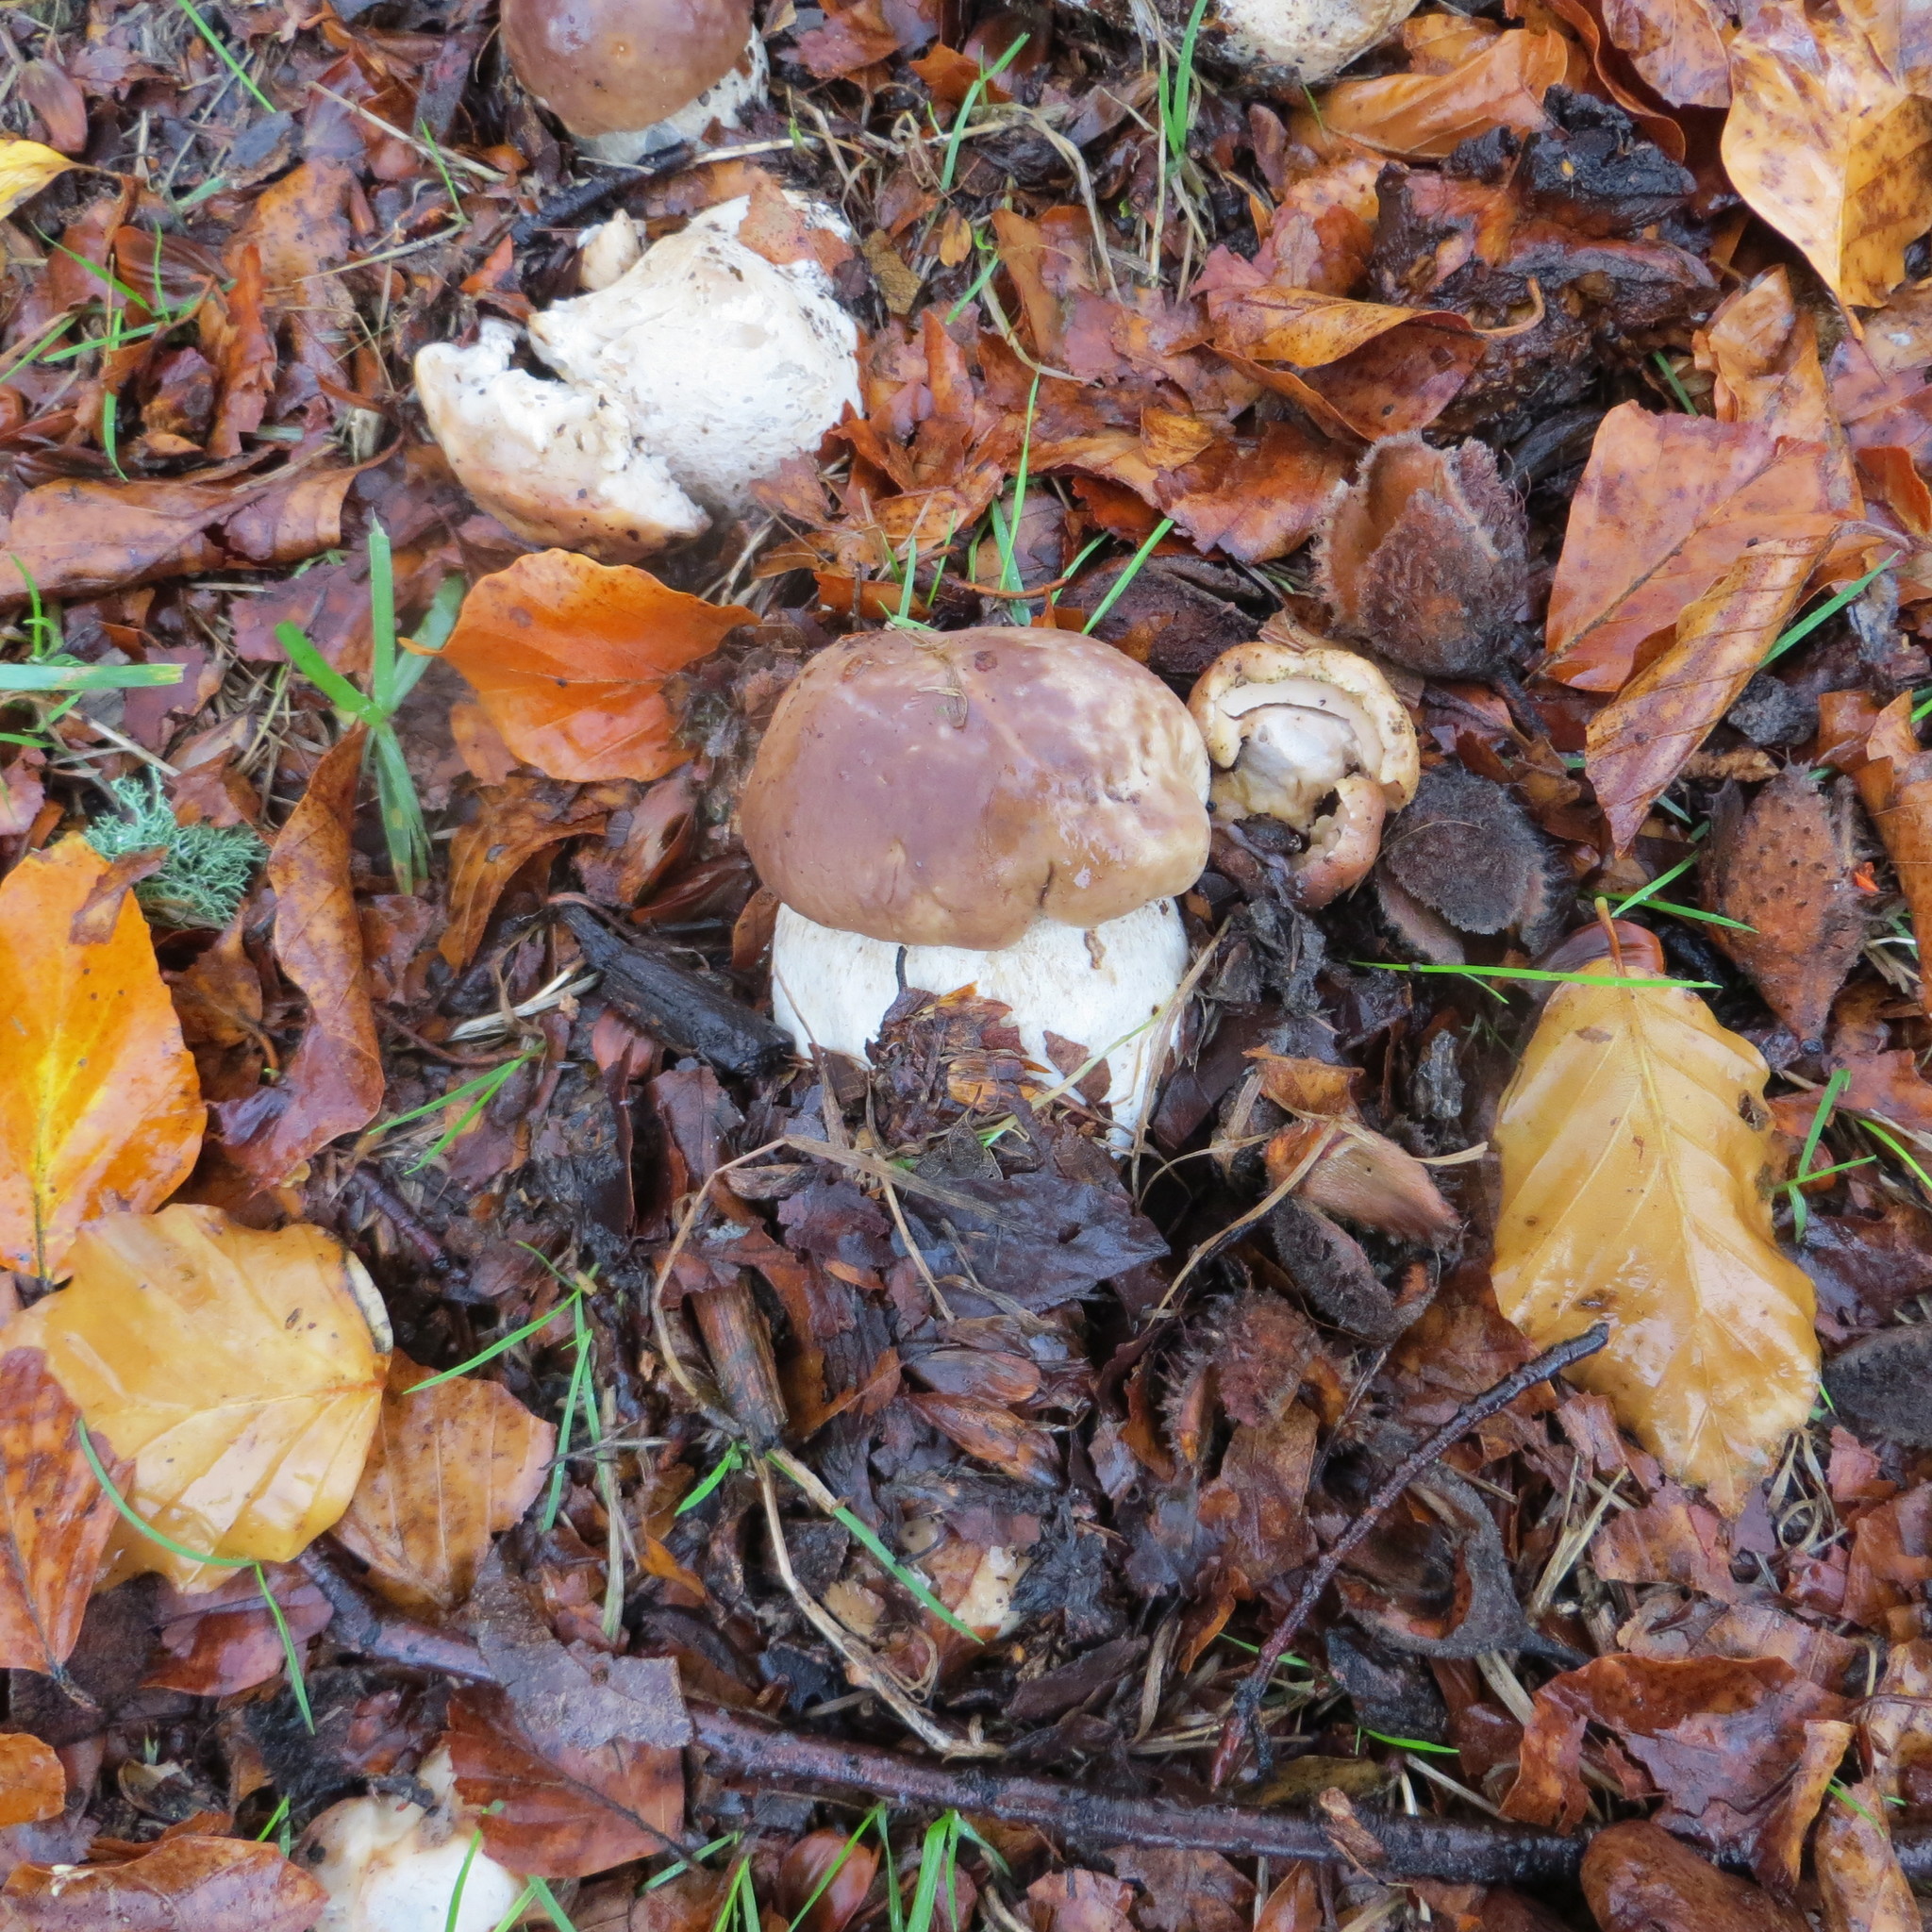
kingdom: Fungi
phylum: Basidiomycota
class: Agaricomycetes
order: Boletales
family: Boletaceae
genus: Boletus
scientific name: Boletus edulis
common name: Cep
